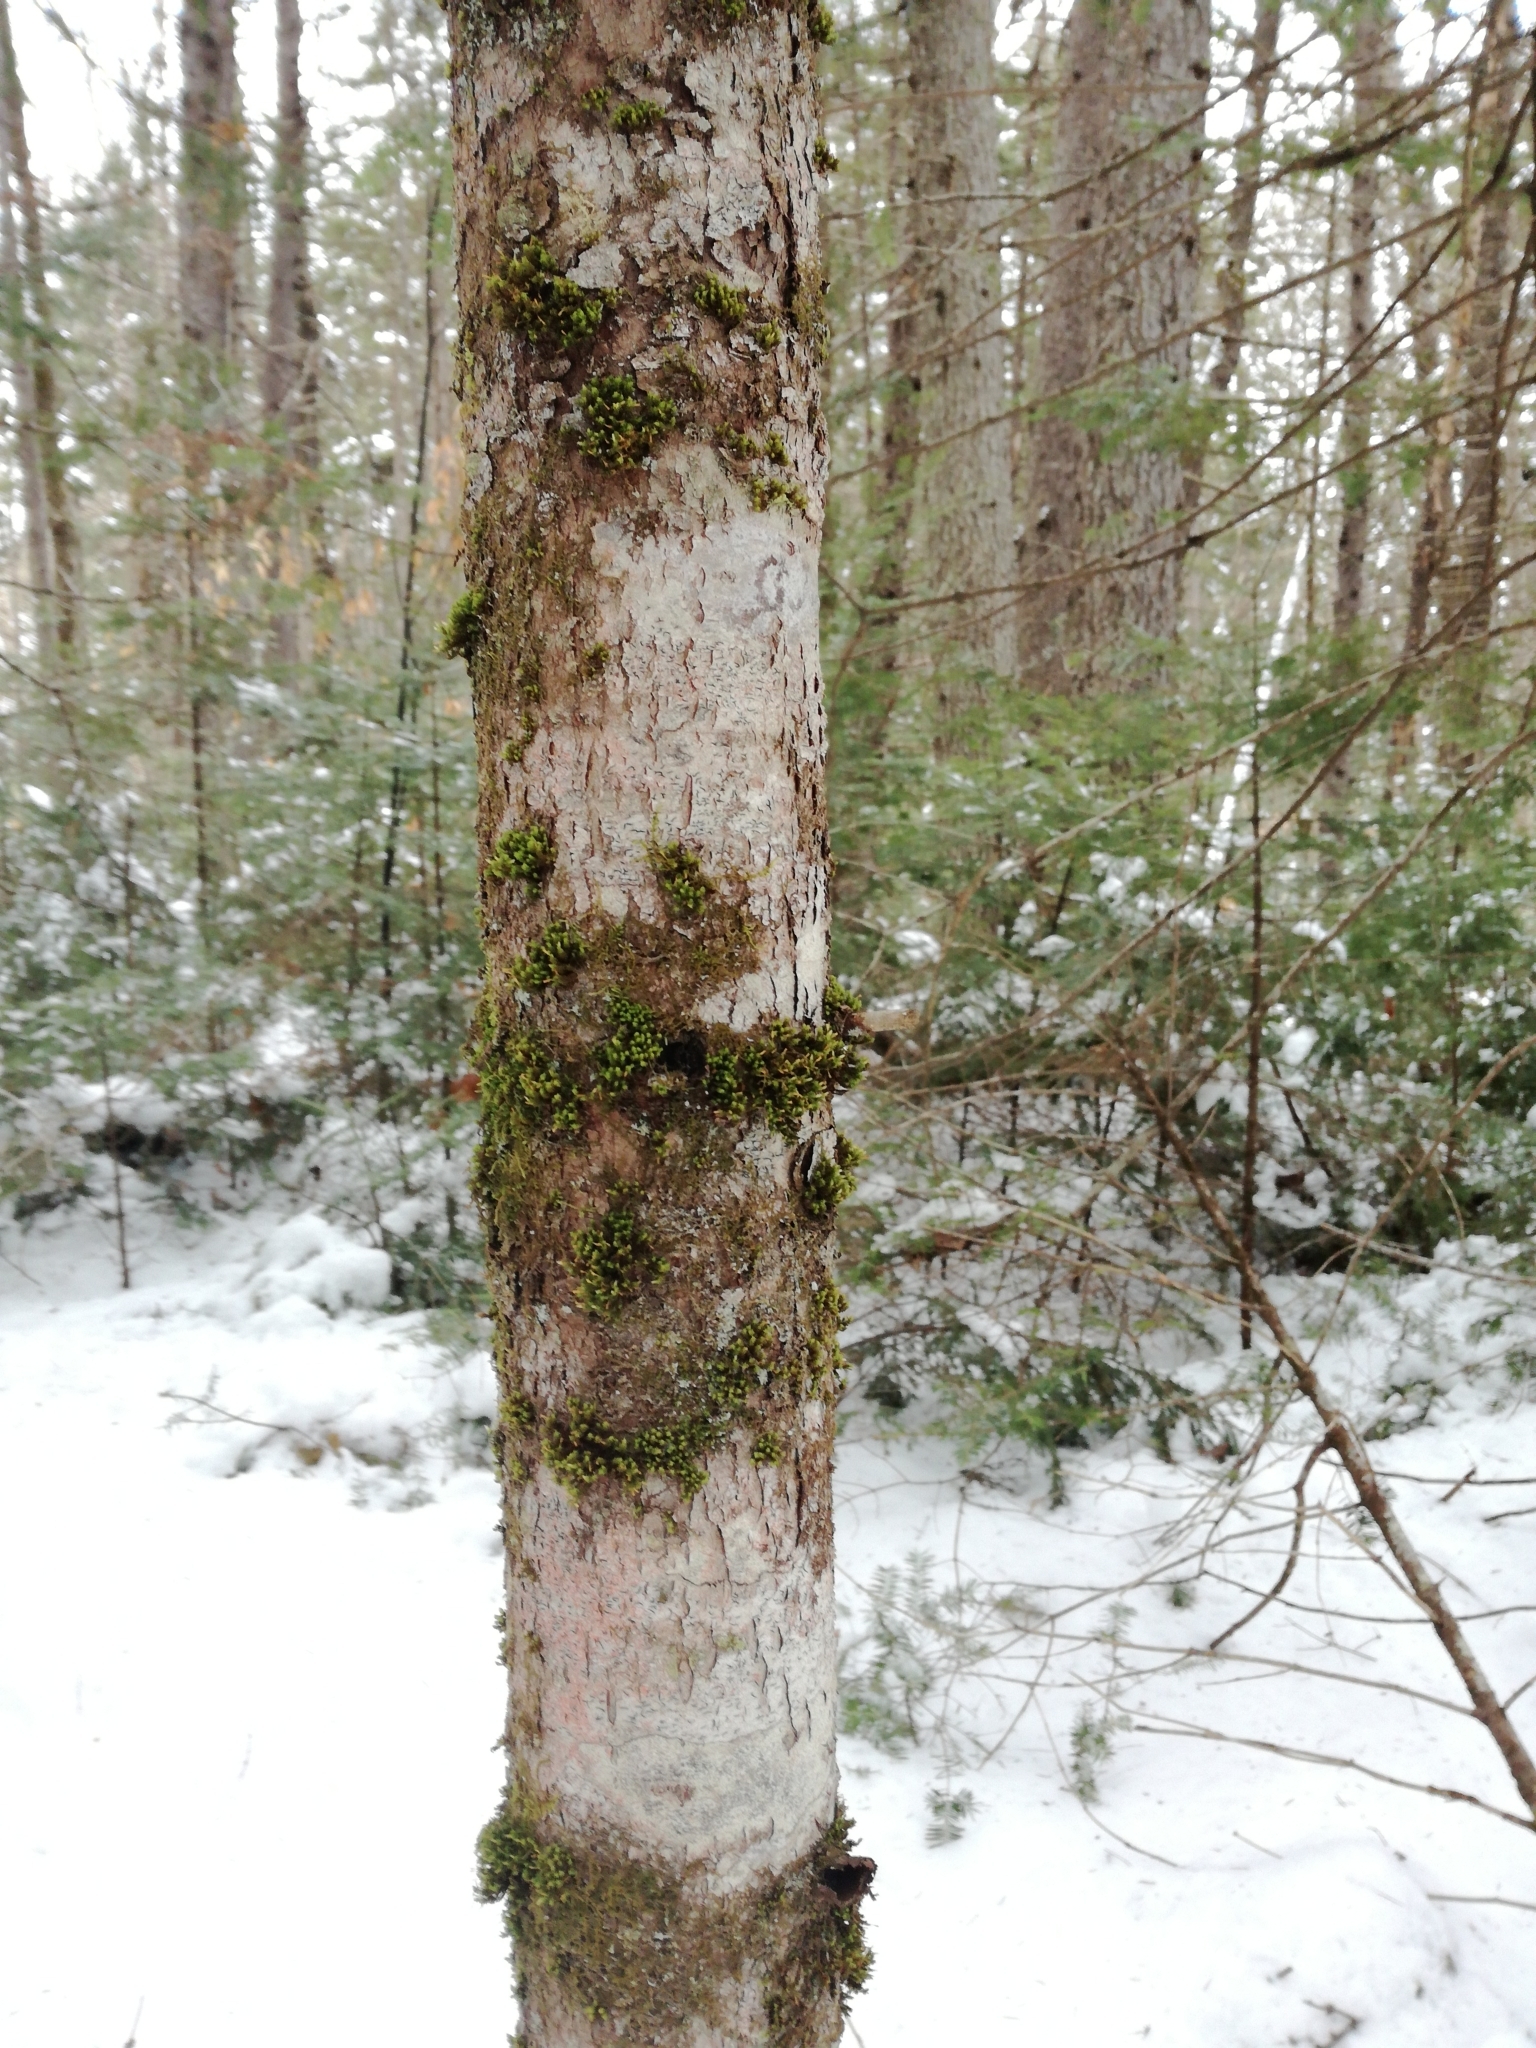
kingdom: Plantae
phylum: Bryophyta
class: Bryopsida
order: Orthotrichales
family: Orthotrichaceae
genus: Ulota
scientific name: Ulota crispa
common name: Crisped pincushion moss
